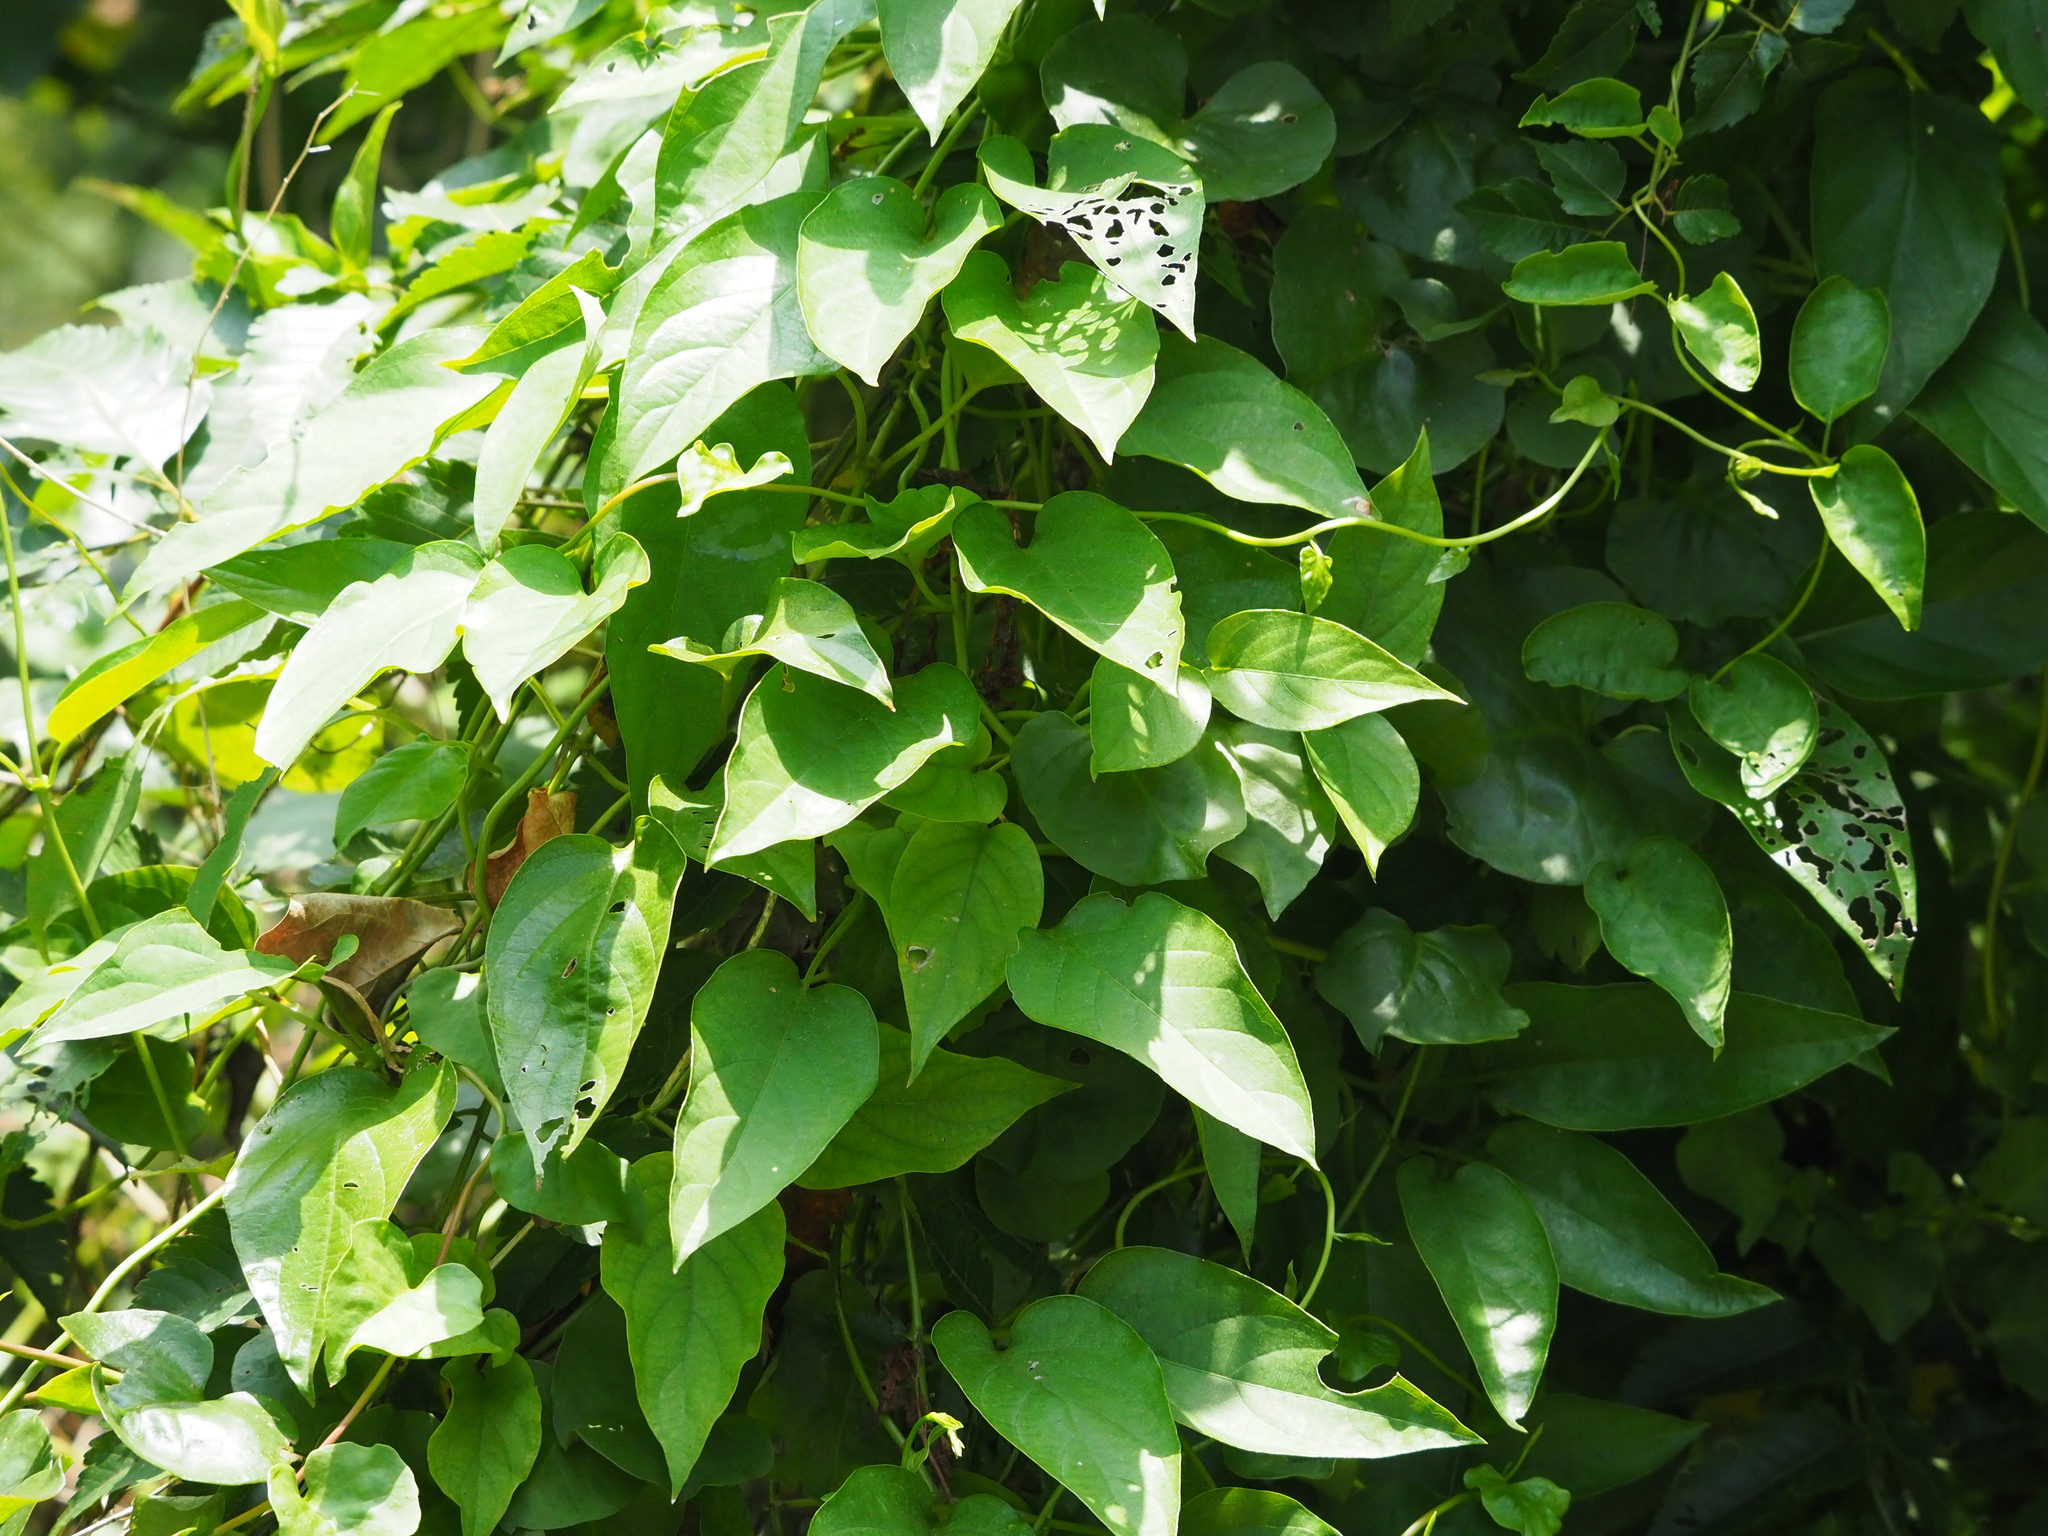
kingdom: Plantae
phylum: Tracheophyta
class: Magnoliopsida
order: Gentianales
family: Rubiaceae
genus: Paederia
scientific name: Paederia foetida
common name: Stinkvine
